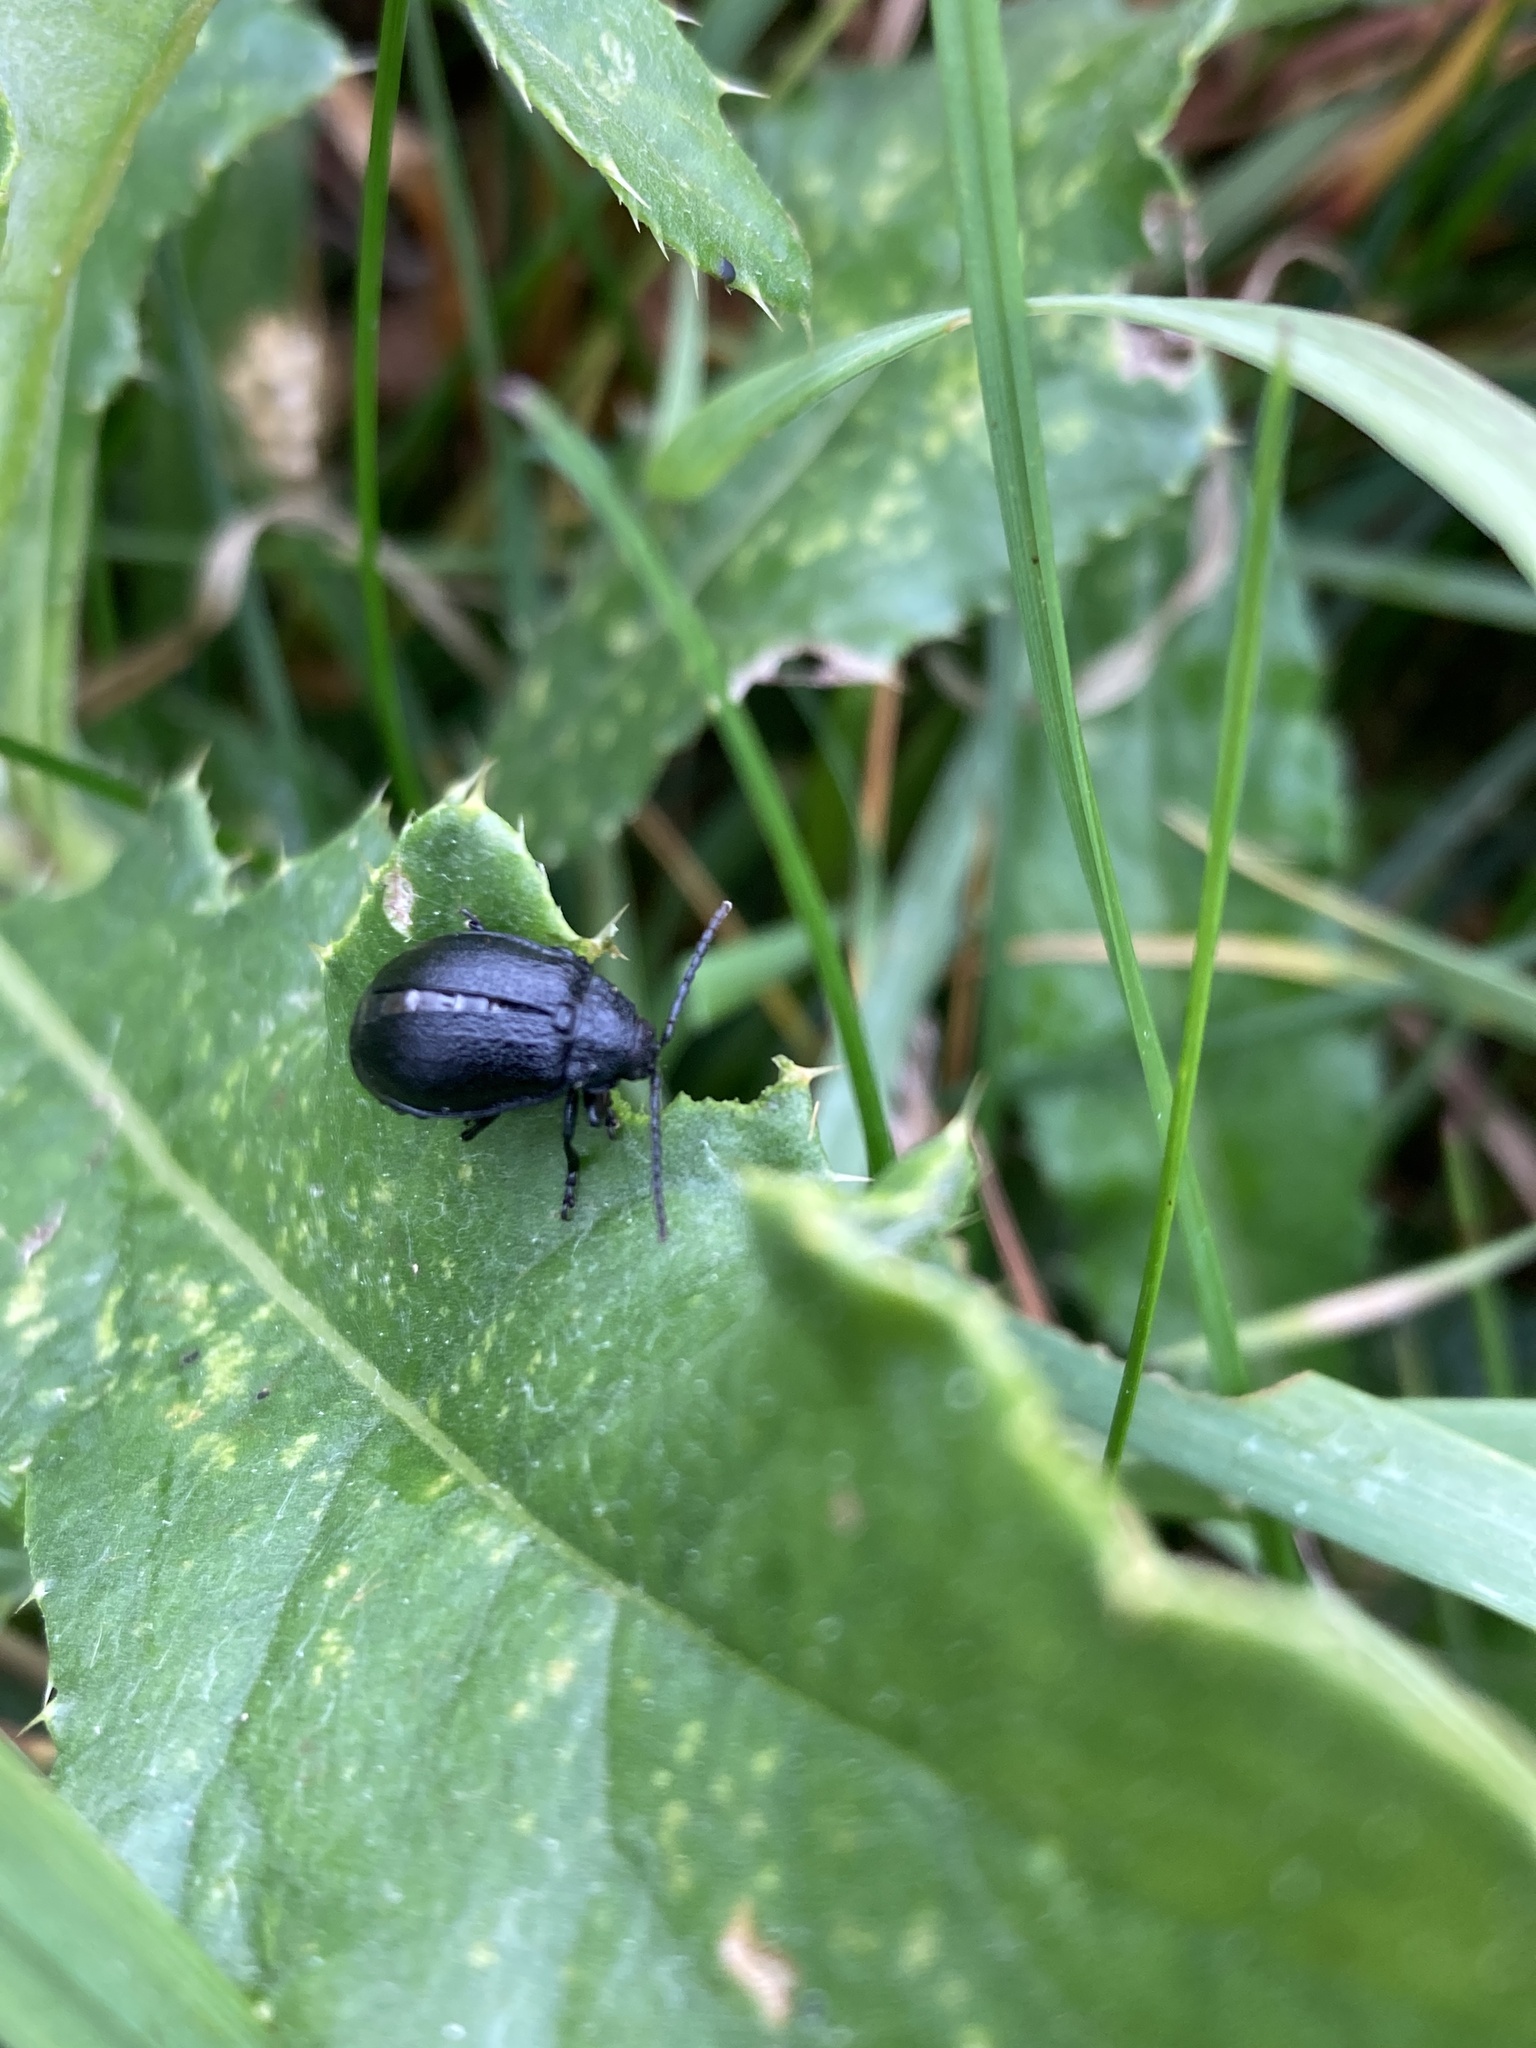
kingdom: Animalia
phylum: Arthropoda
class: Insecta
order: Coleoptera
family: Chrysomelidae
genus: Galeruca
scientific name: Galeruca tanaceti
